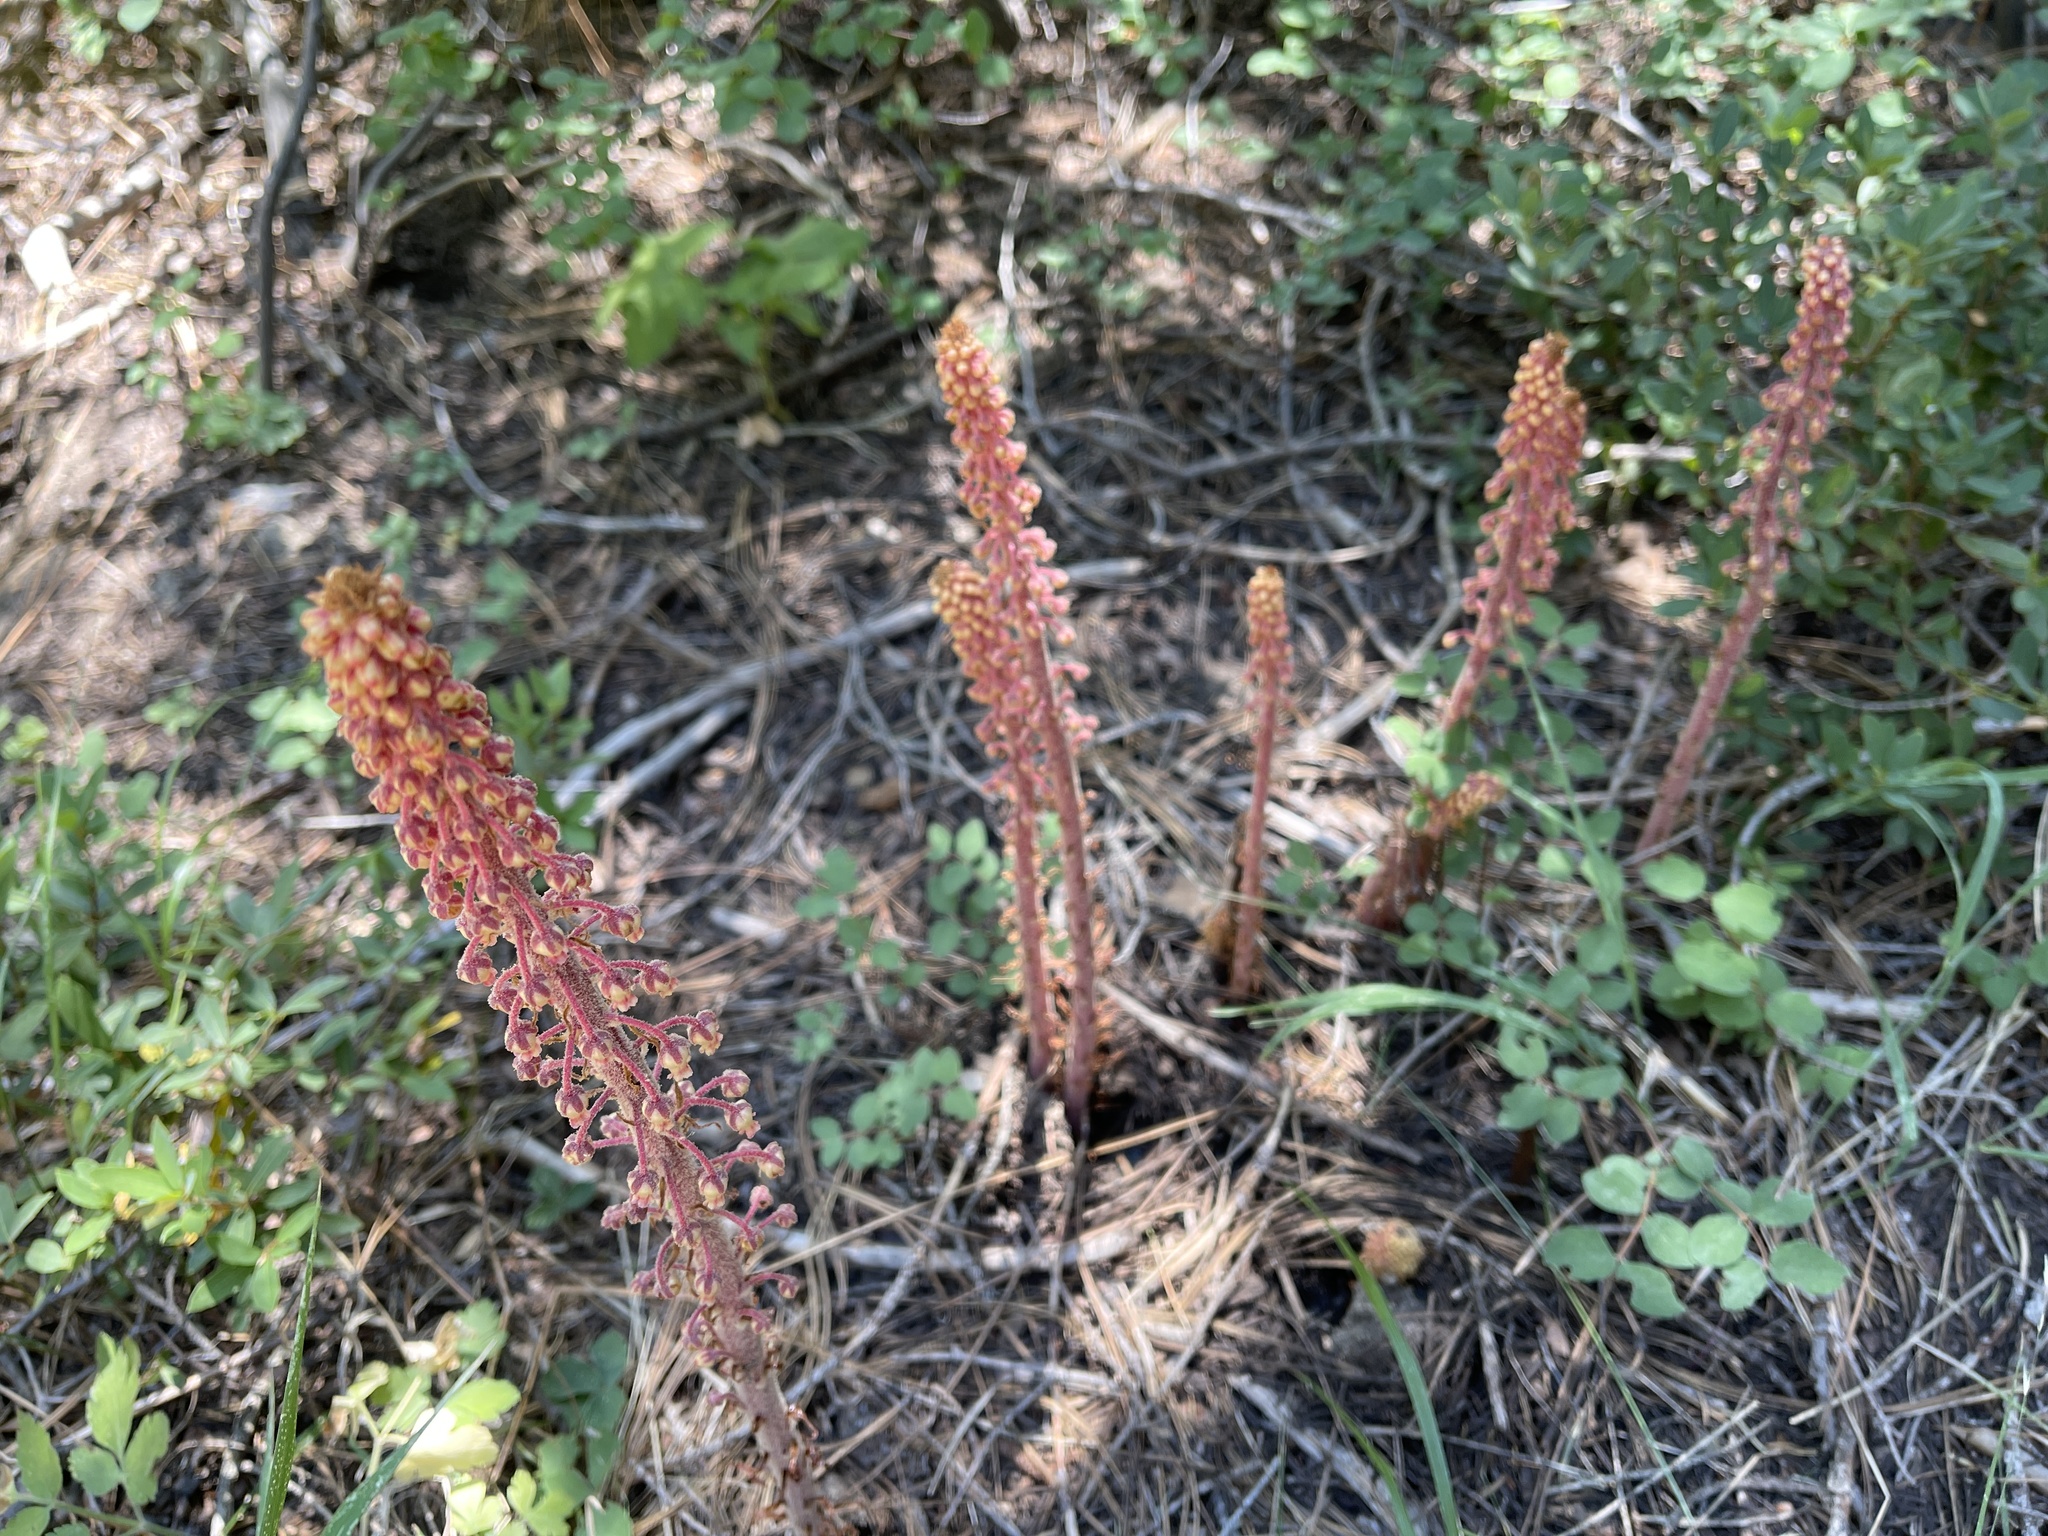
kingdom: Plantae
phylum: Tracheophyta
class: Magnoliopsida
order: Ericales
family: Ericaceae
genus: Pterospora
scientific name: Pterospora andromedea
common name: Giant bird's-nest
